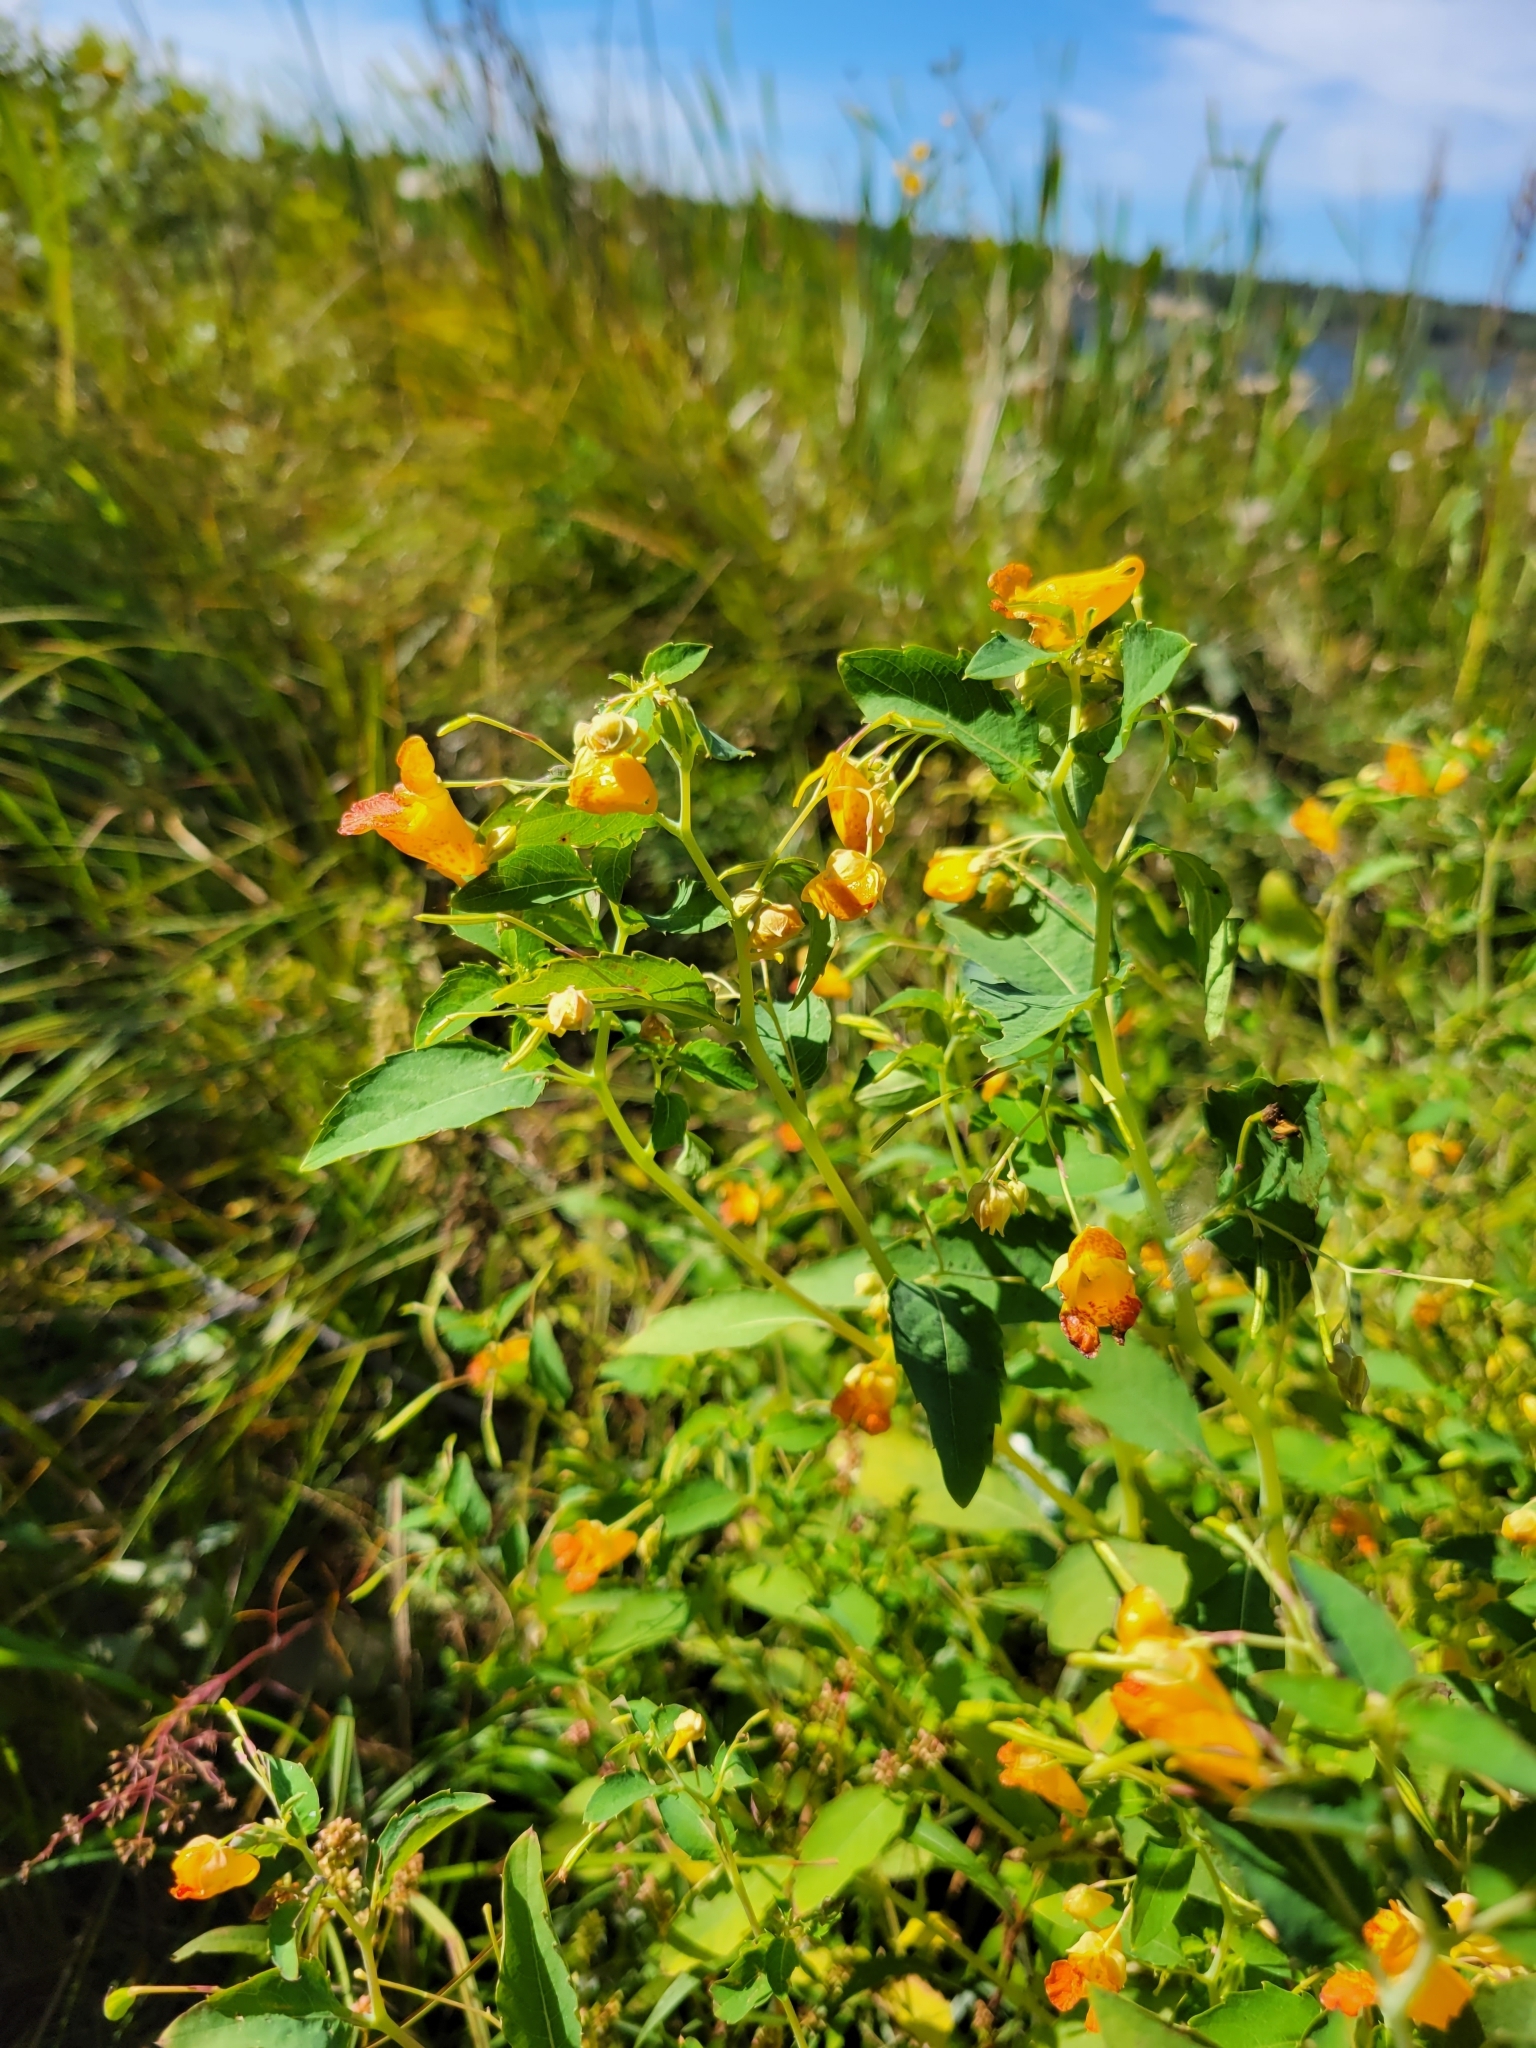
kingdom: Plantae
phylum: Tracheophyta
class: Magnoliopsida
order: Ericales
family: Balsaminaceae
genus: Impatiens
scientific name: Impatiens capensis
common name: Orange balsam
